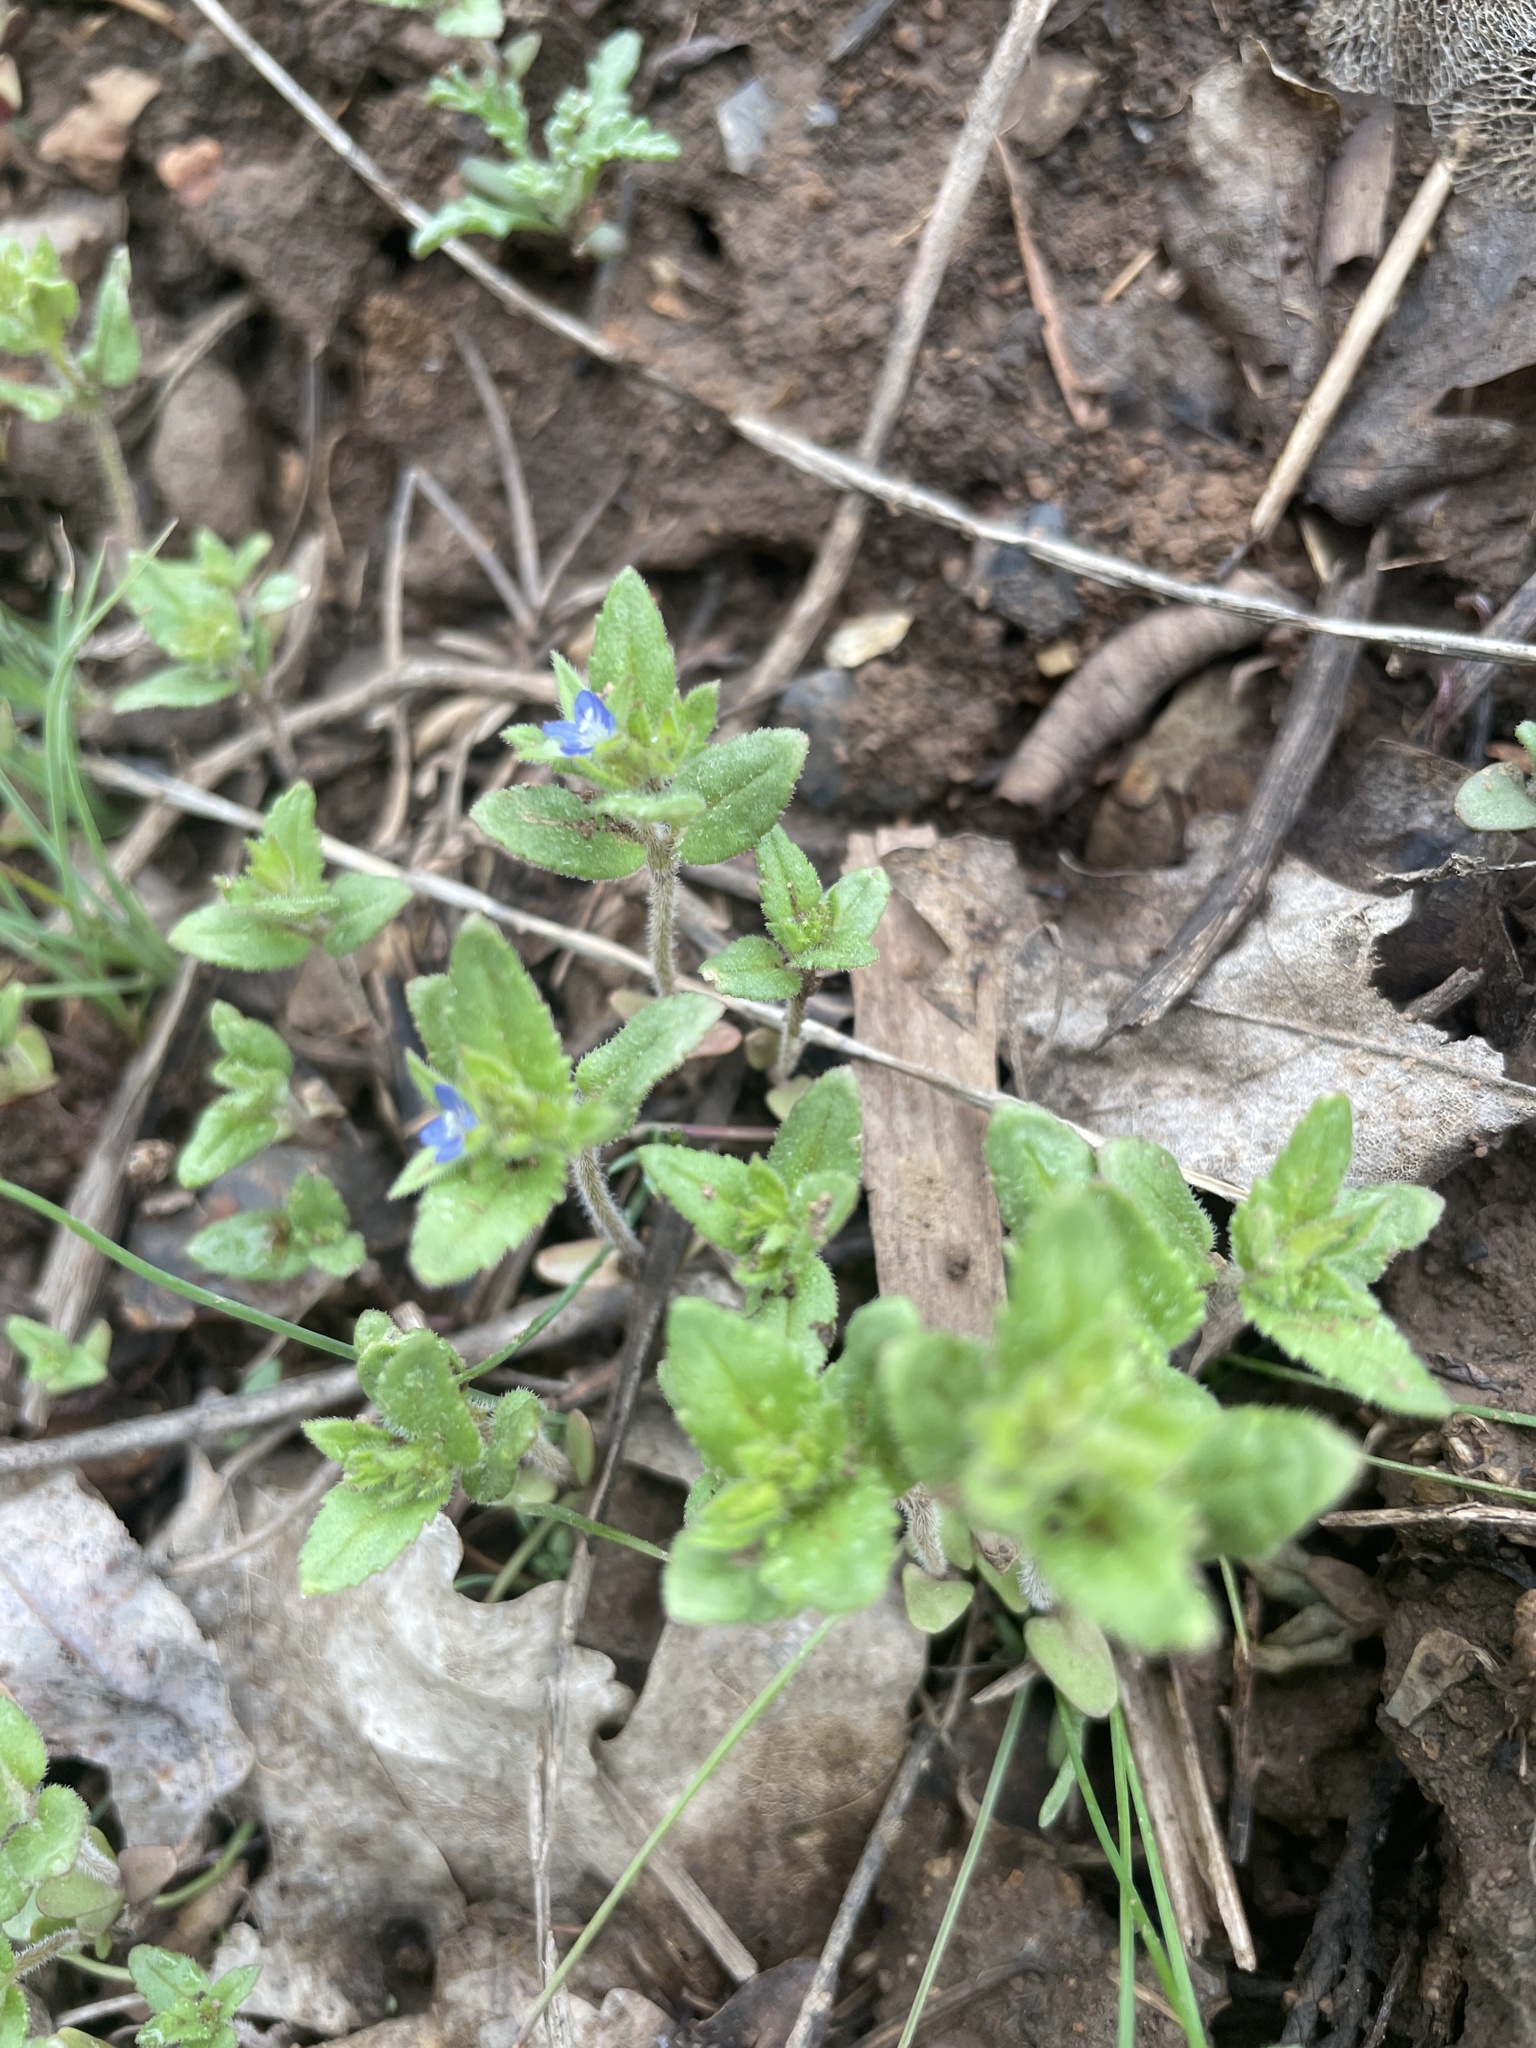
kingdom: Plantae
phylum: Tracheophyta
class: Magnoliopsida
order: Lamiales
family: Plantaginaceae
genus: Veronica
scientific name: Veronica biloba
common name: Twolobe speedwell
